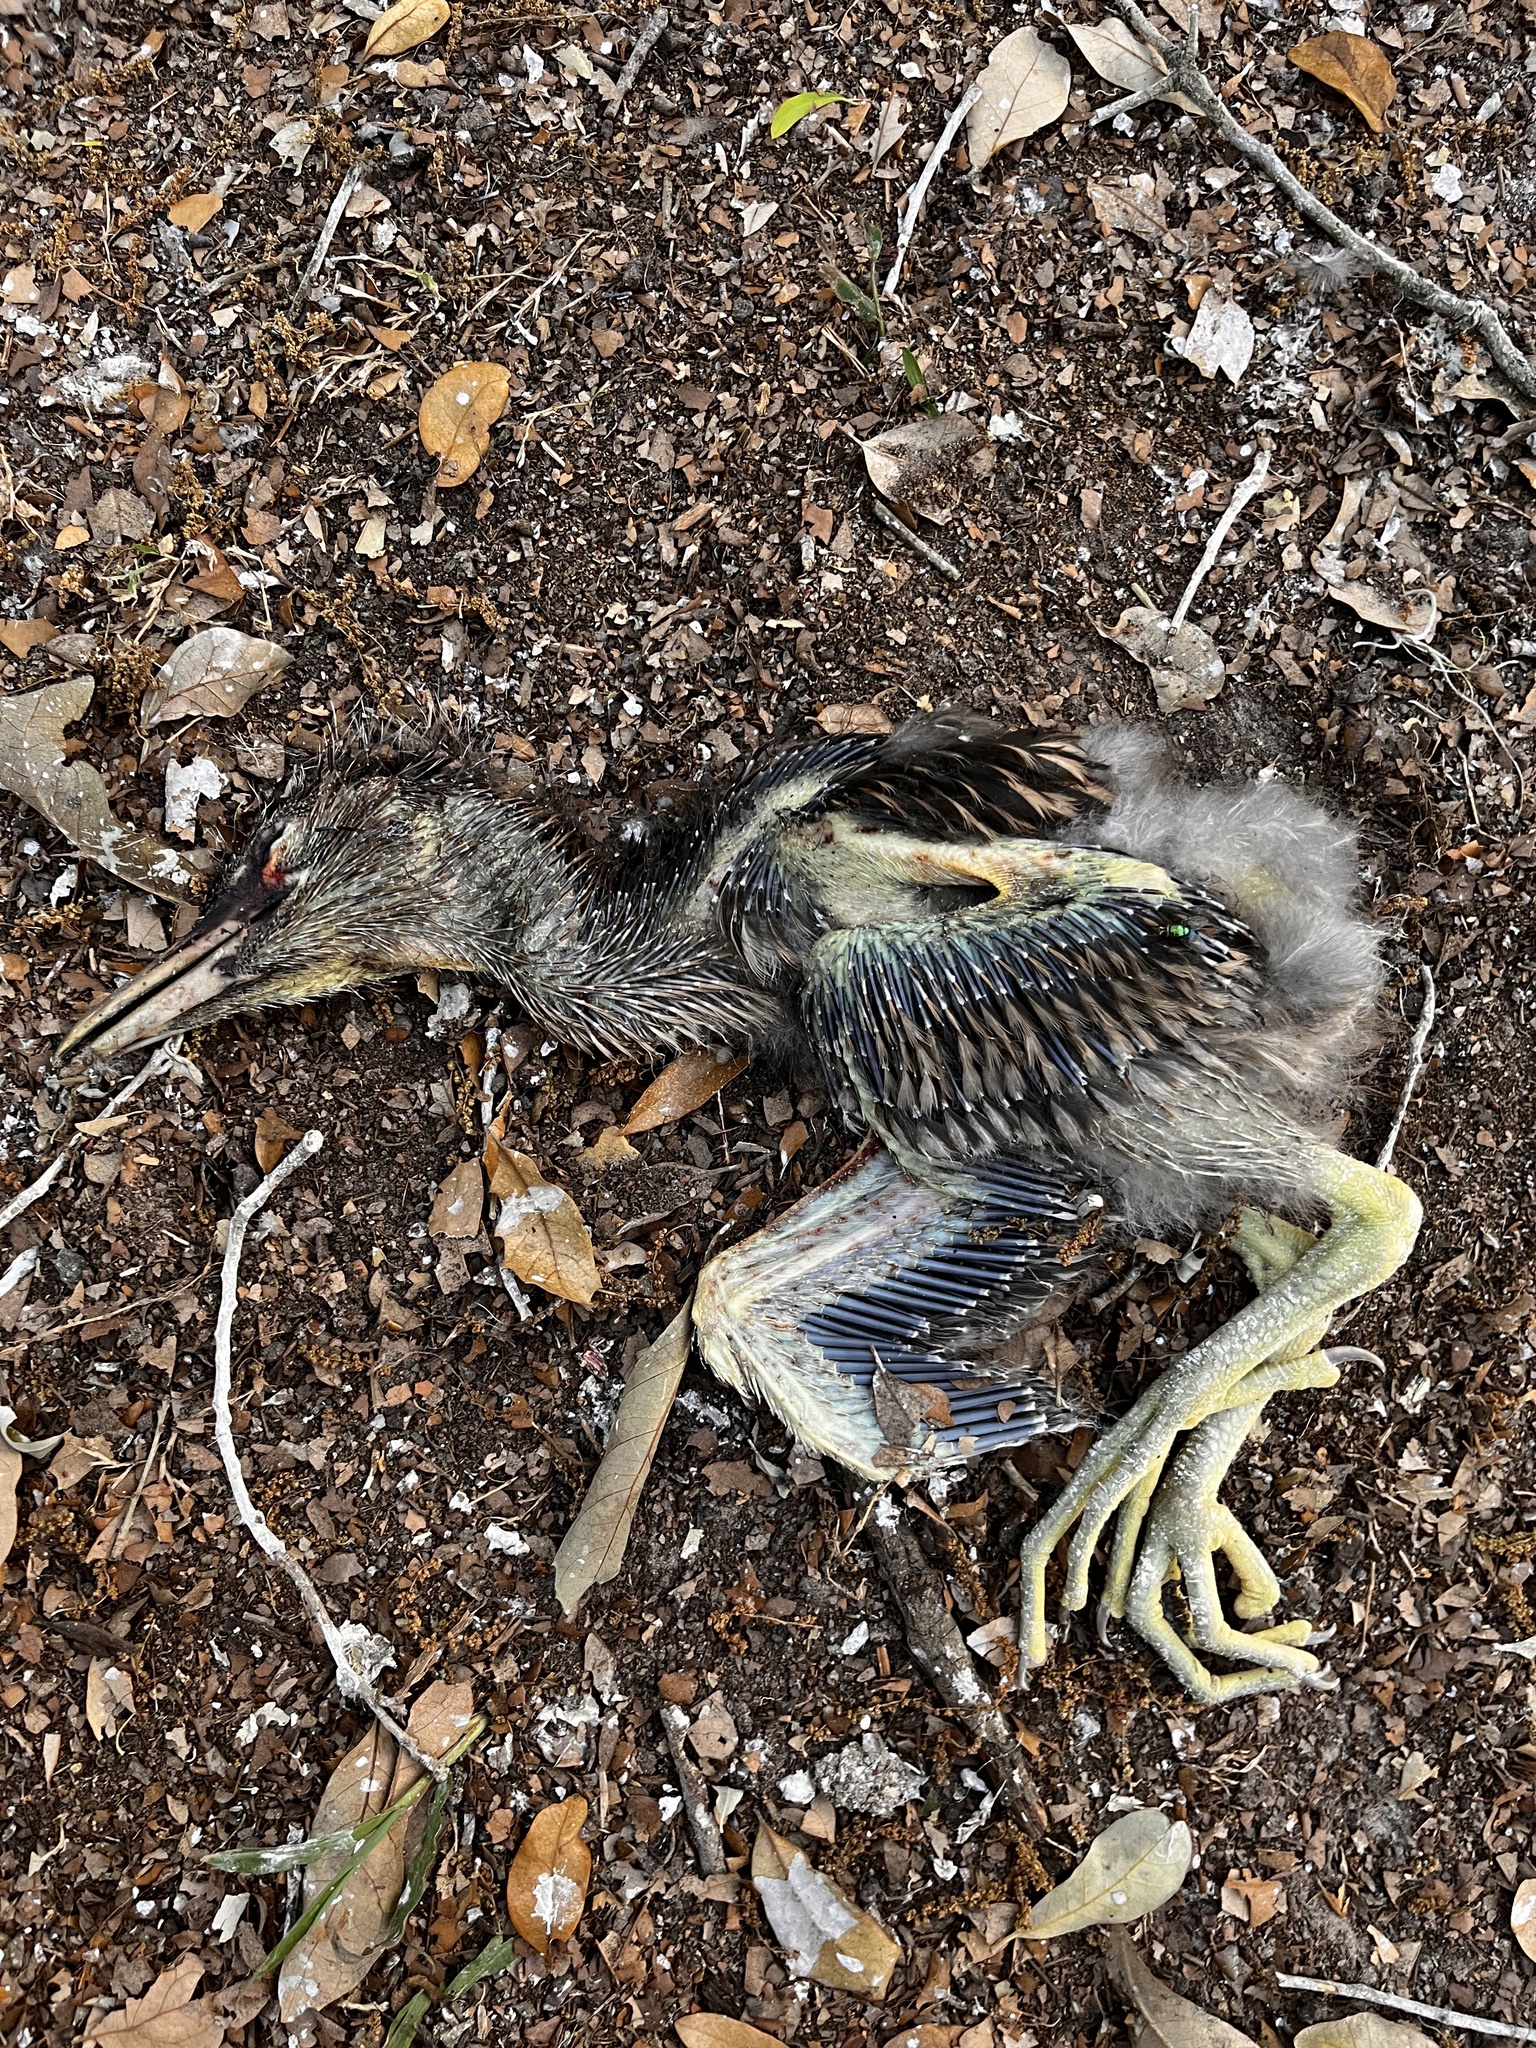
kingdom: Animalia
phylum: Chordata
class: Aves
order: Pelecaniformes
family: Ardeidae
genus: Nycticorax
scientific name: Nycticorax nycticorax
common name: Black-crowned night heron
